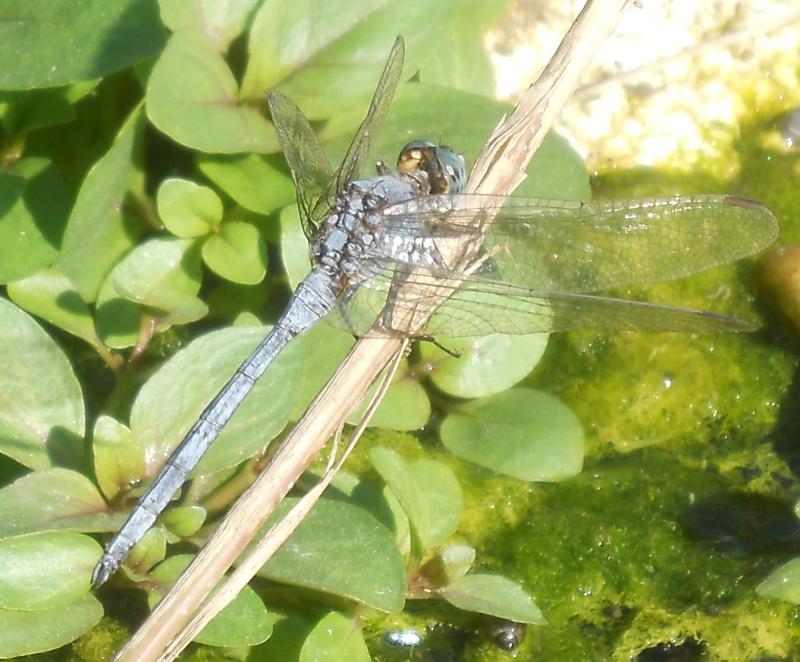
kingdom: Animalia
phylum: Arthropoda
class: Insecta
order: Odonata
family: Libellulidae
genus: Orthetrum
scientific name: Orthetrum chrysostigma
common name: Epaulet skimmer
